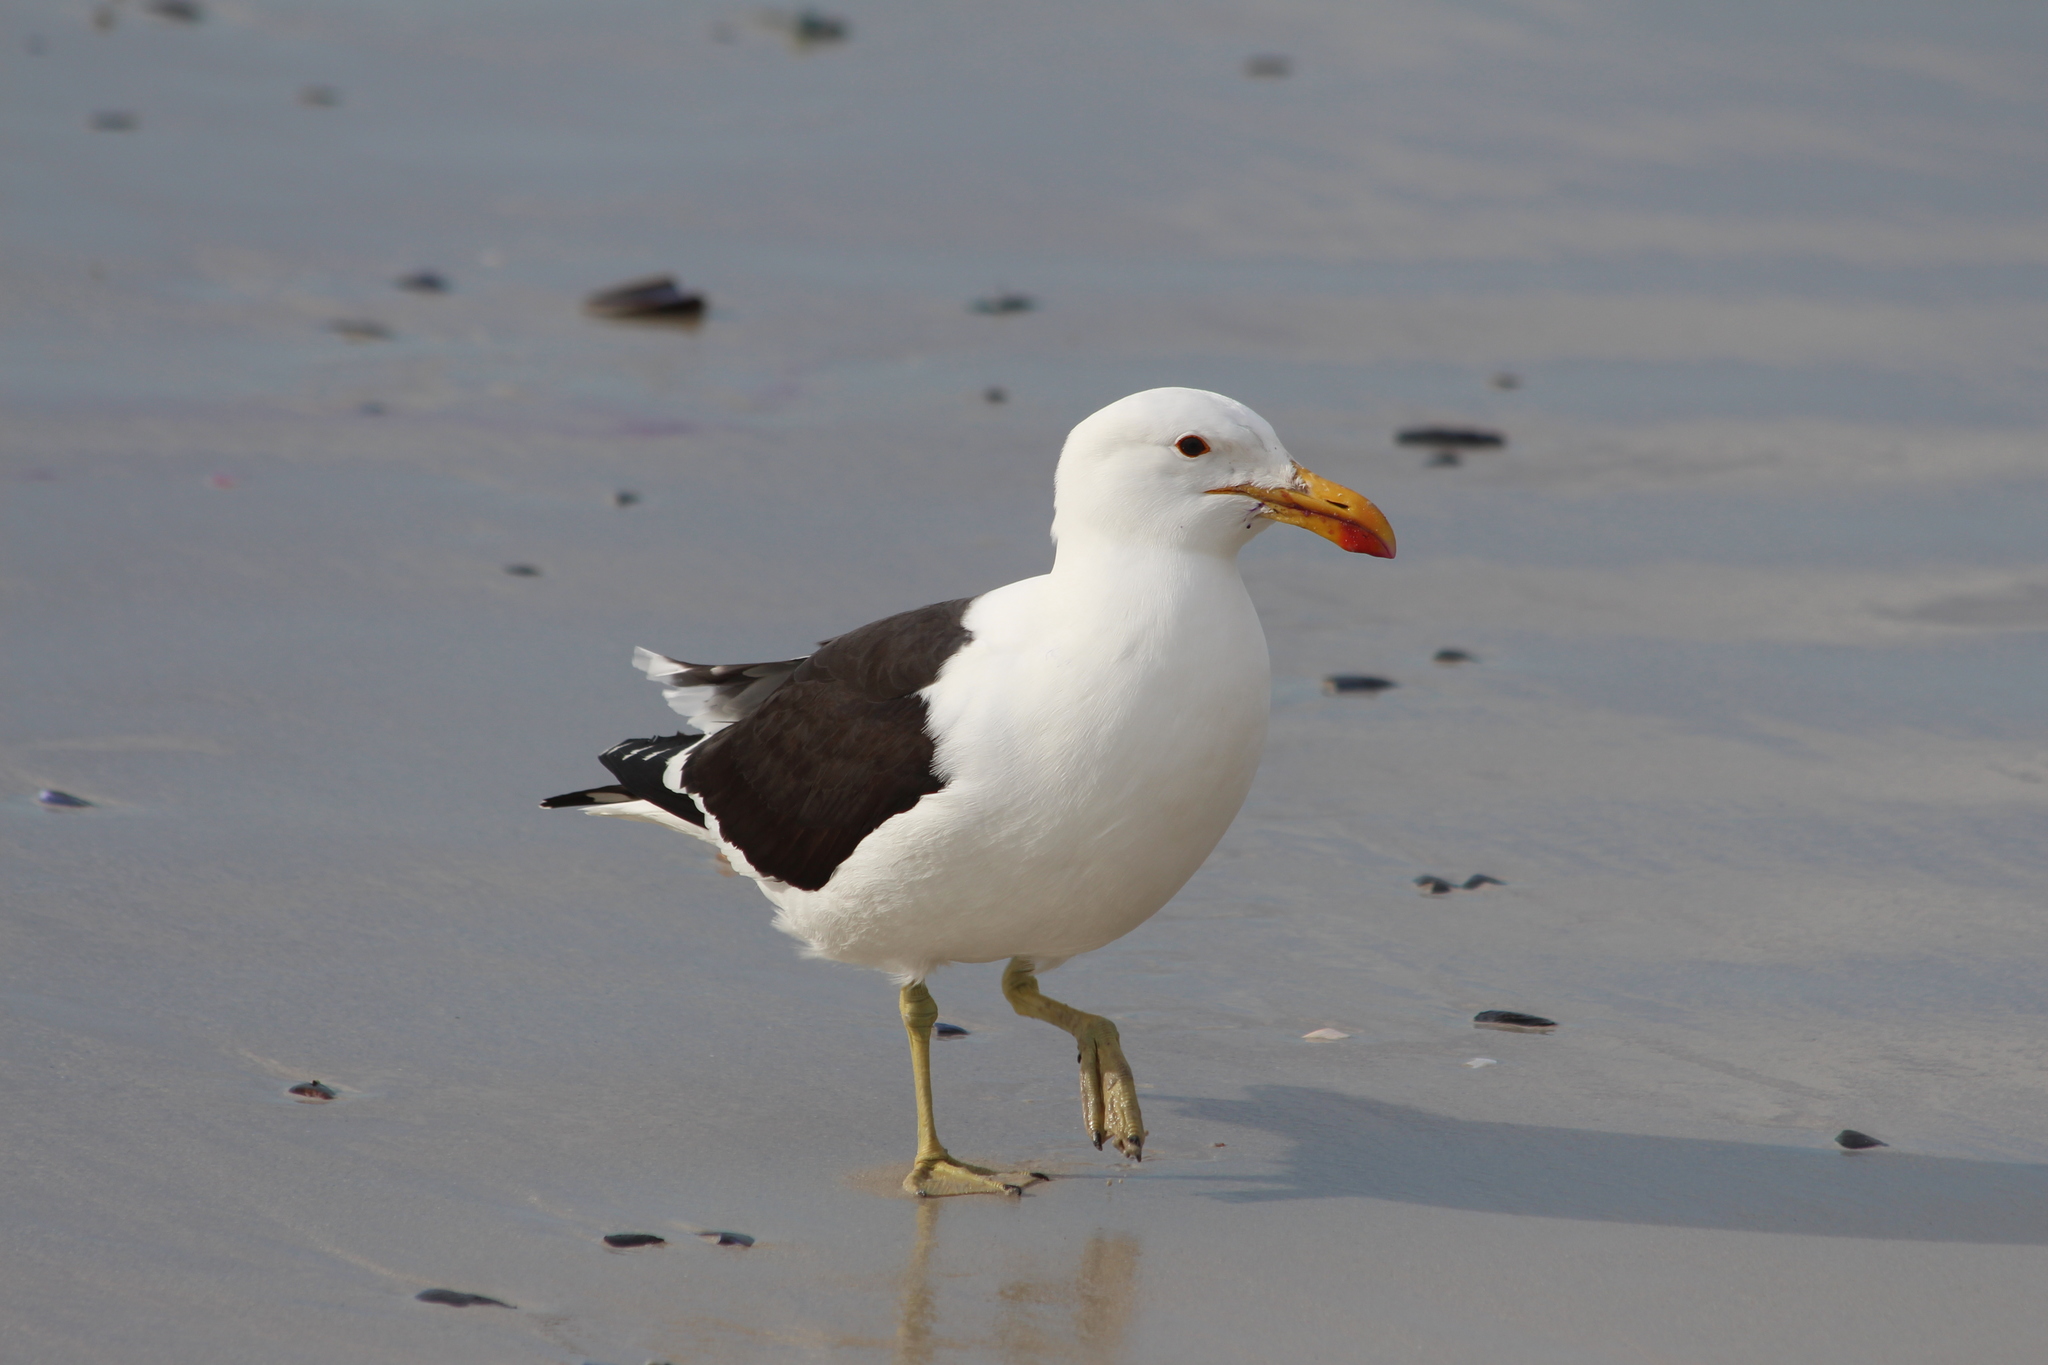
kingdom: Animalia
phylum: Chordata
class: Aves
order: Charadriiformes
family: Laridae
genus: Larus
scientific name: Larus dominicanus
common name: Kelp gull
